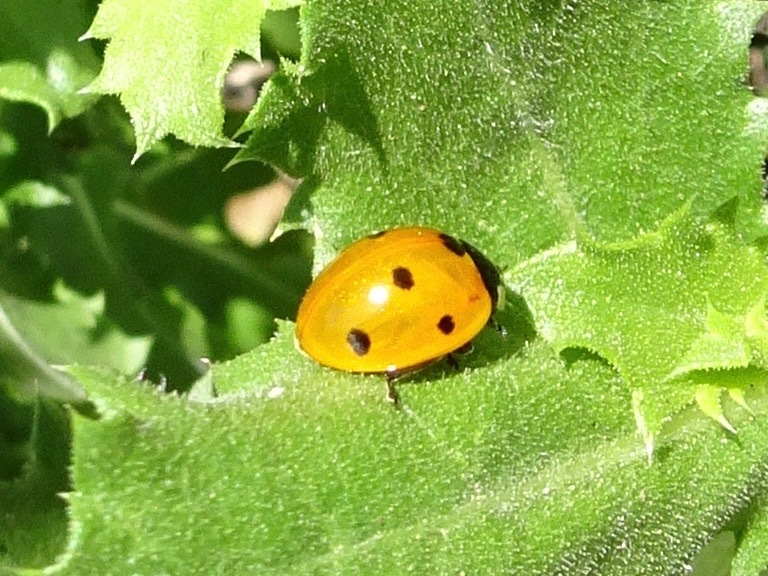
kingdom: Animalia
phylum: Arthropoda
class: Insecta
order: Coleoptera
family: Coccinellidae
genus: Coccinella
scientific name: Coccinella septempunctata
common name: Sevenspotted lady beetle
